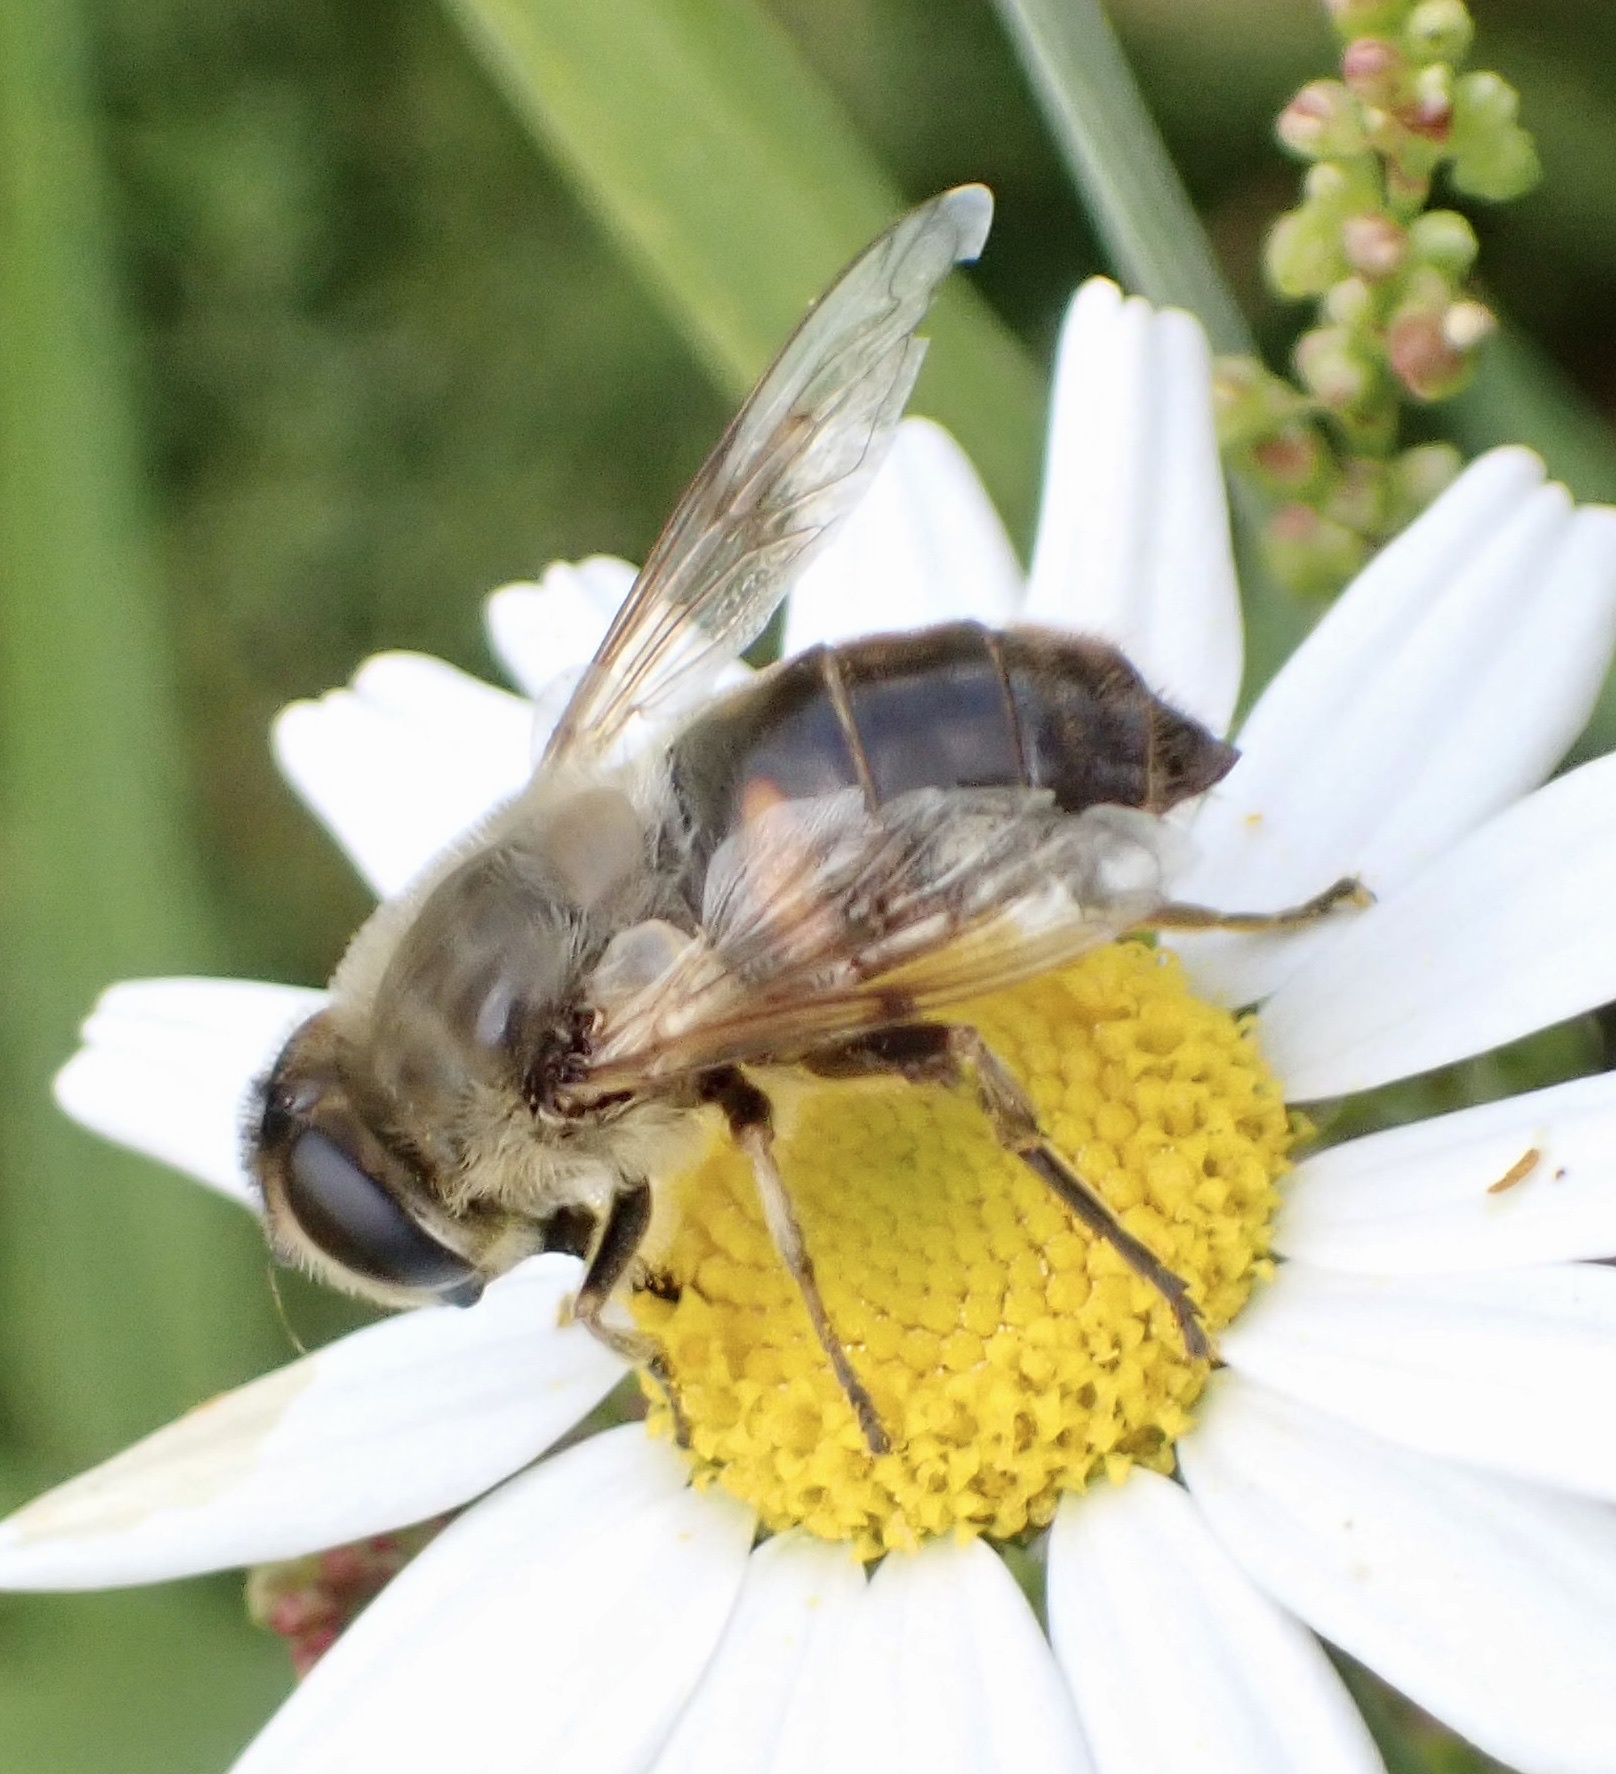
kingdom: Animalia
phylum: Arthropoda
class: Insecta
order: Diptera
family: Syrphidae
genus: Eristalis
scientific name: Eristalis tenax
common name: Drone fly
